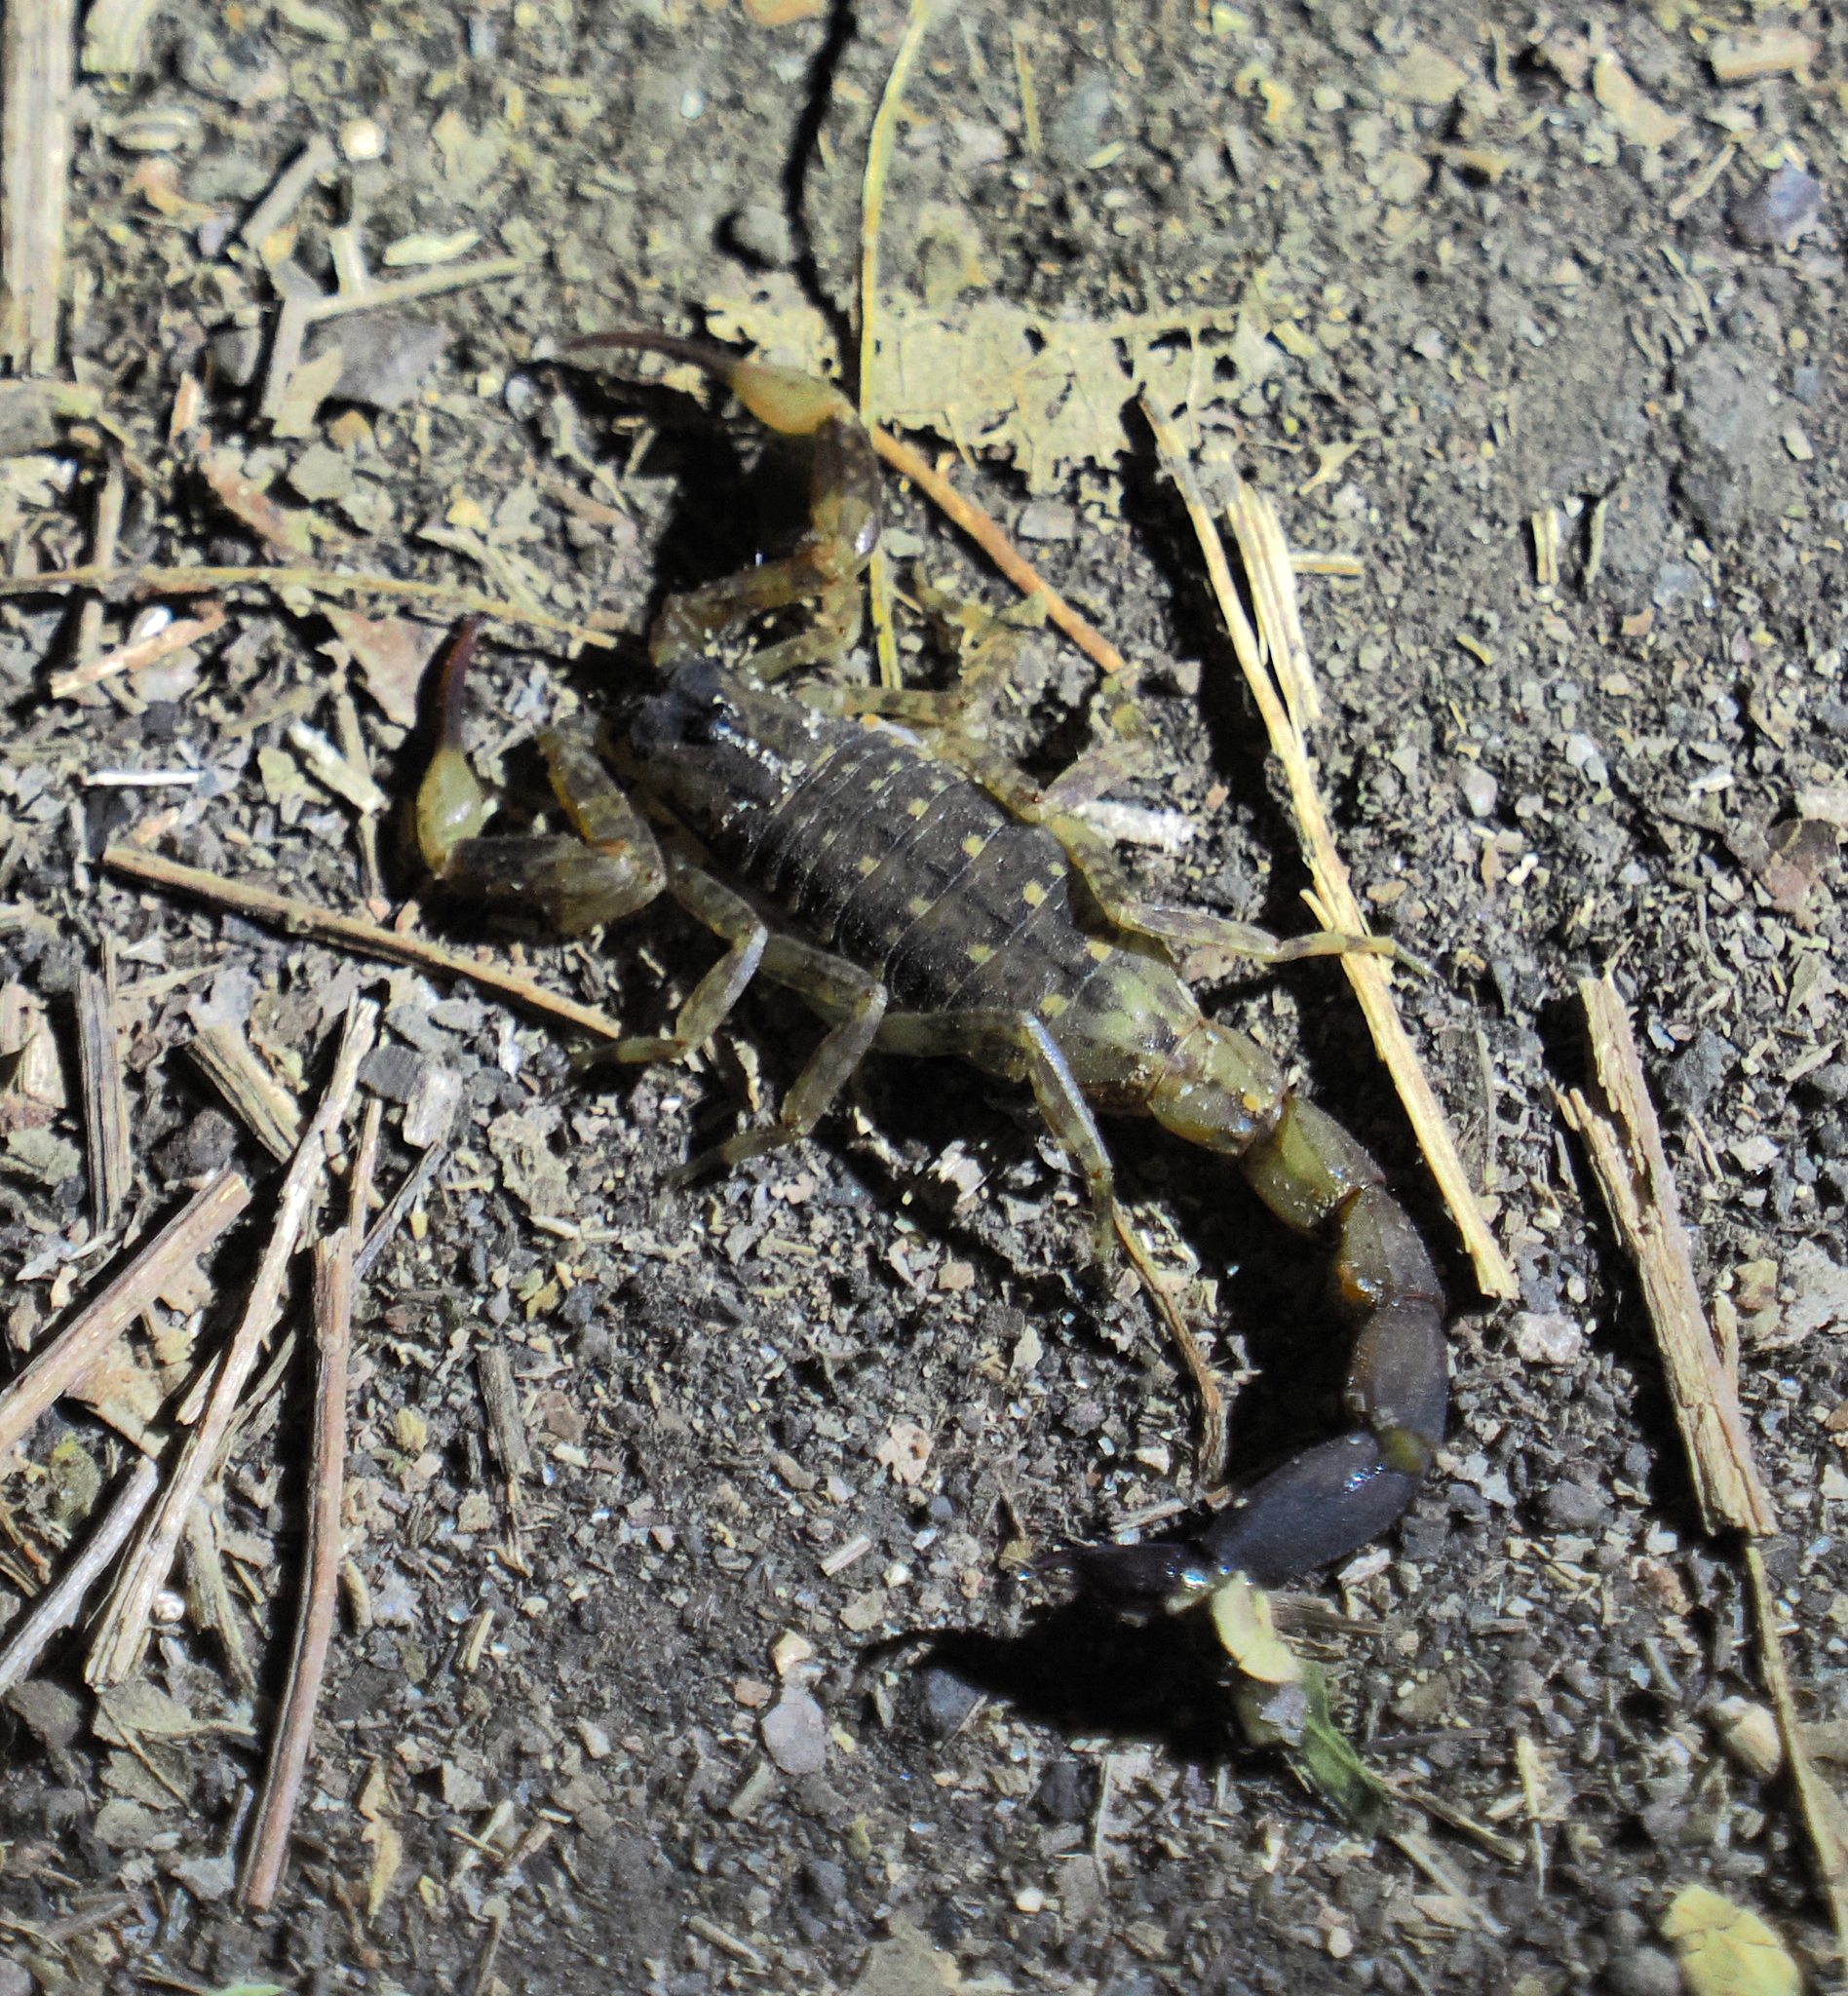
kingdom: Animalia
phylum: Arthropoda
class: Arachnida
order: Scorpiones
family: Buthidae
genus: Lychas
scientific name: Lychas mucronatus
